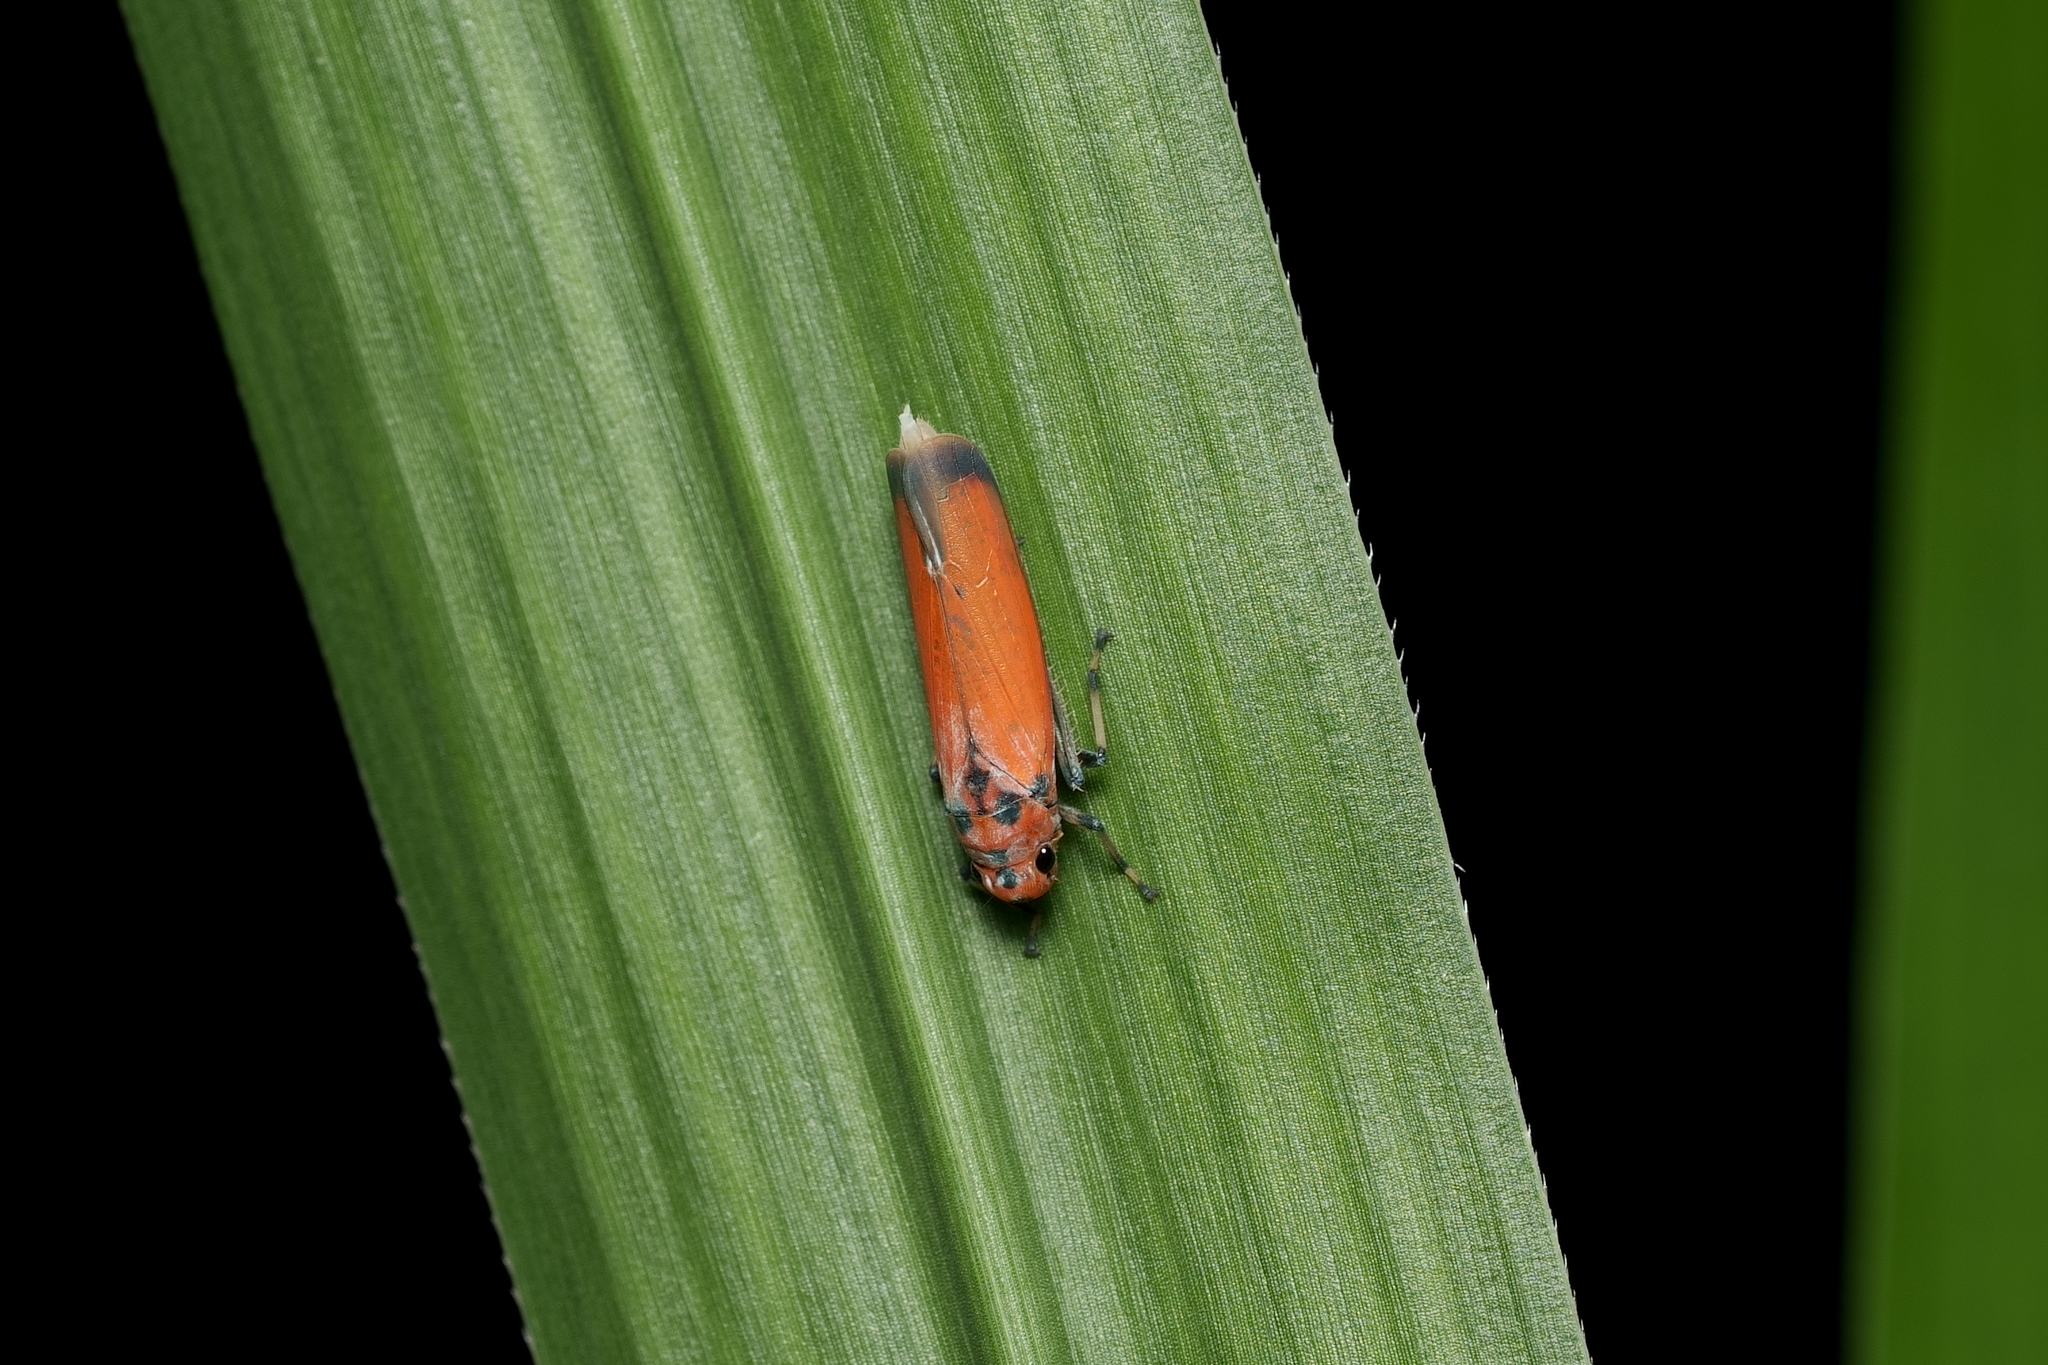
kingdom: Animalia
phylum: Arthropoda
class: Insecta
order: Hemiptera
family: Cicadellidae
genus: Bothrogonia
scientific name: Bothrogonia addita
